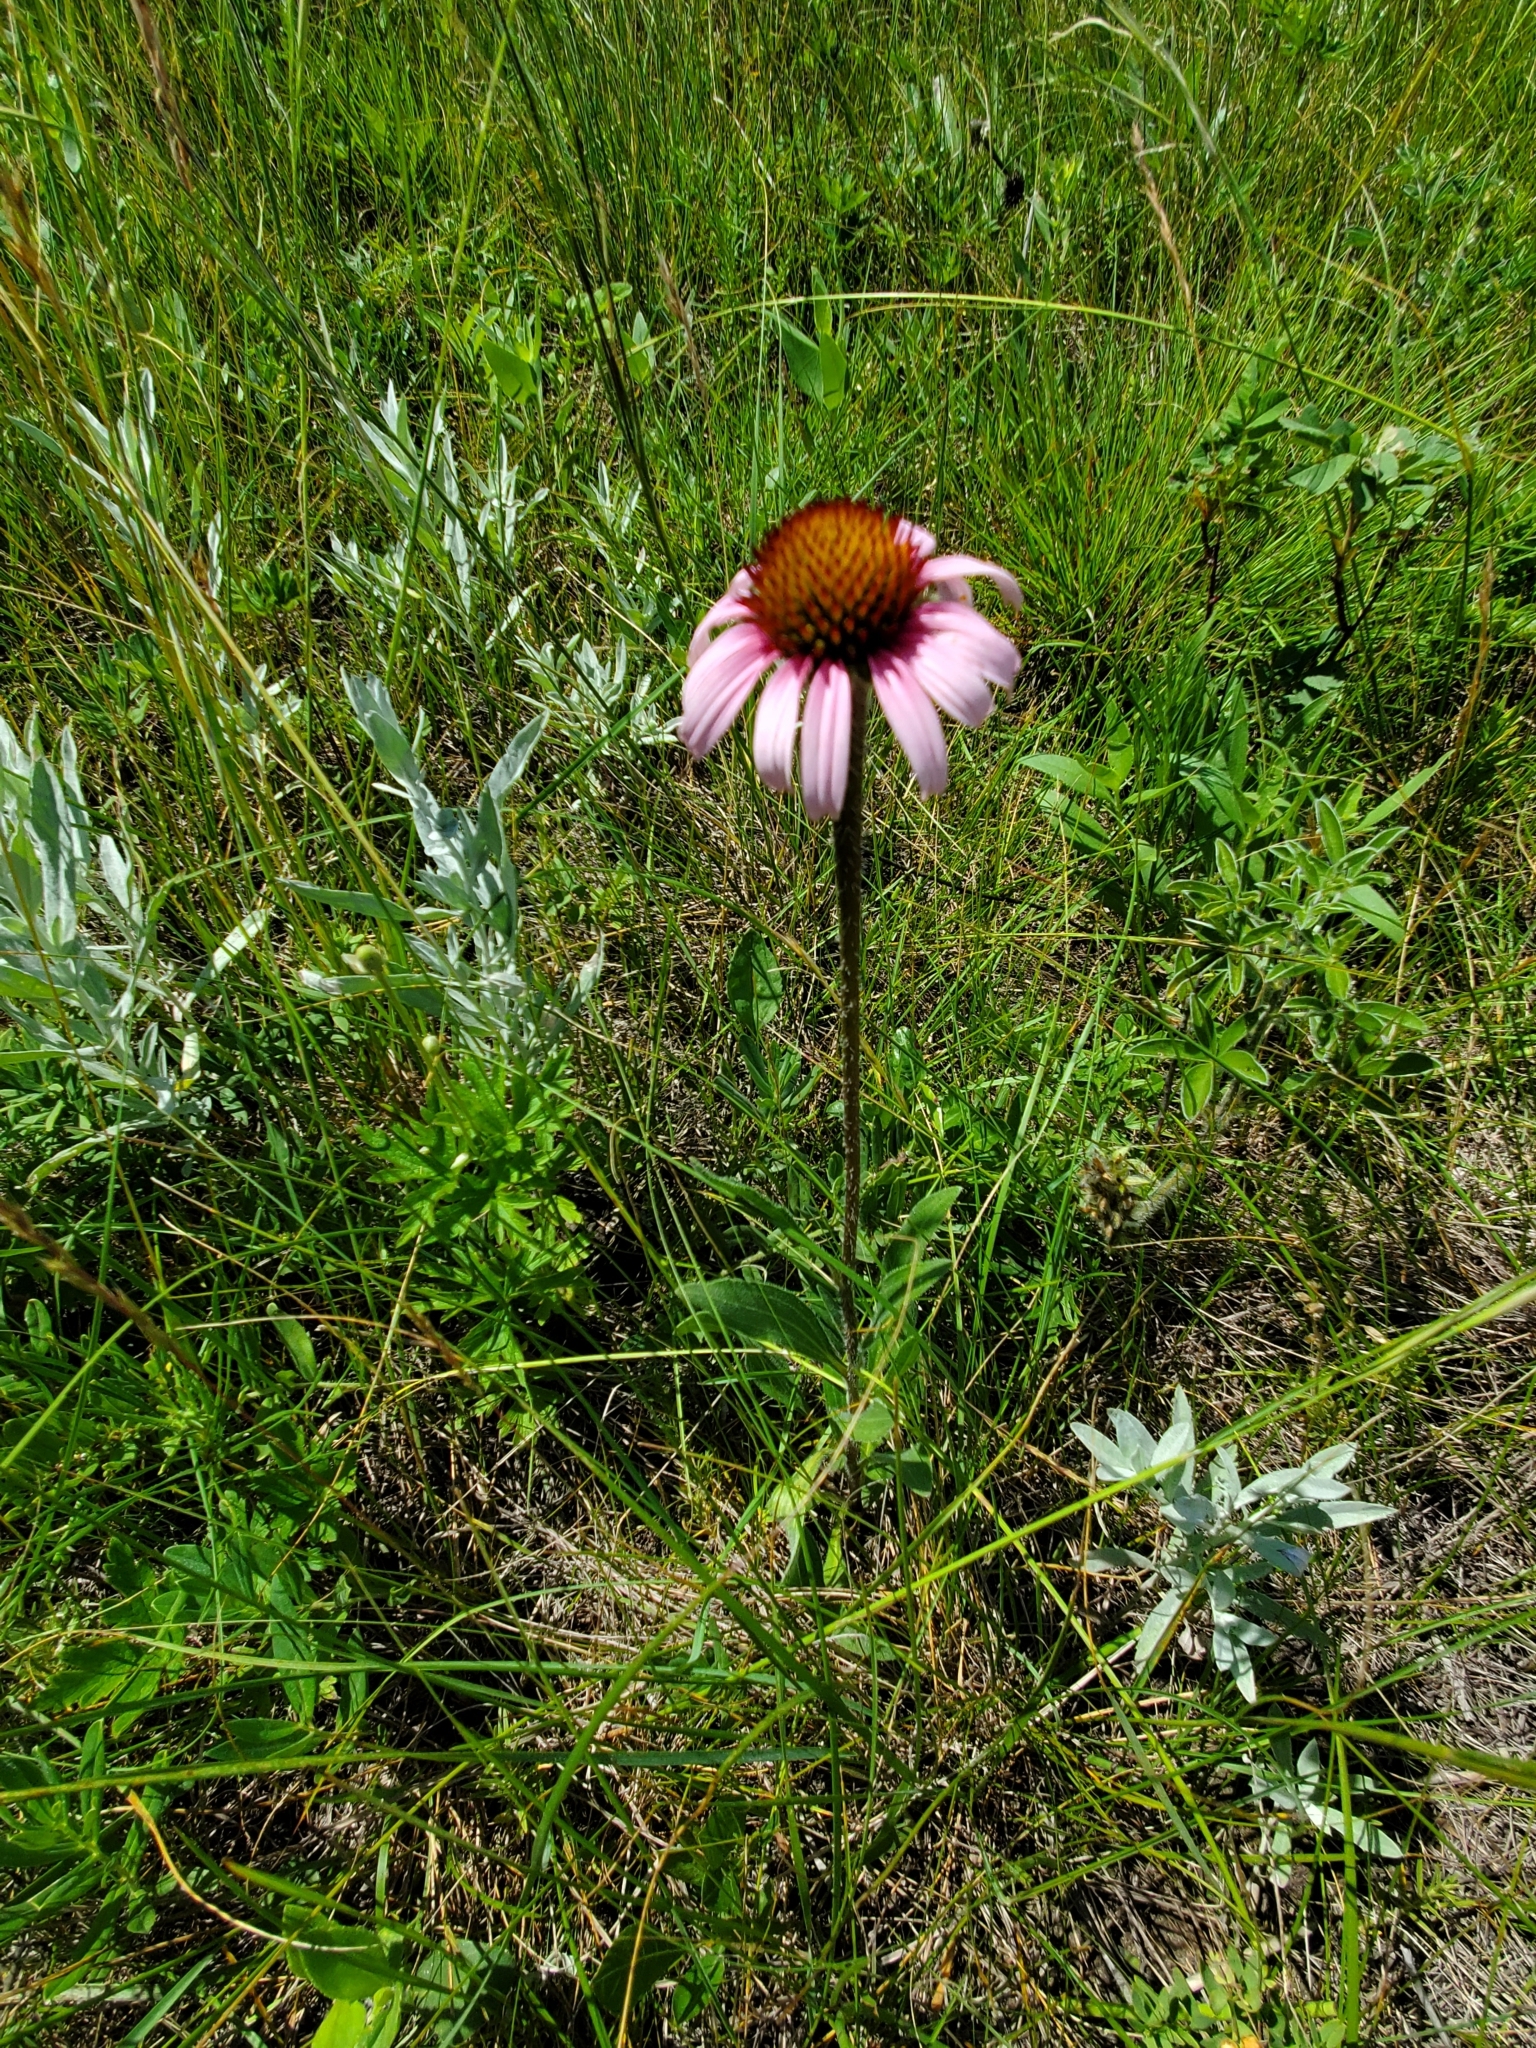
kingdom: Plantae
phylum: Tracheophyta
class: Magnoliopsida
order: Asterales
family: Asteraceae
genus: Echinacea
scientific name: Echinacea angustifolia
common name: Black-sampson echinacea
